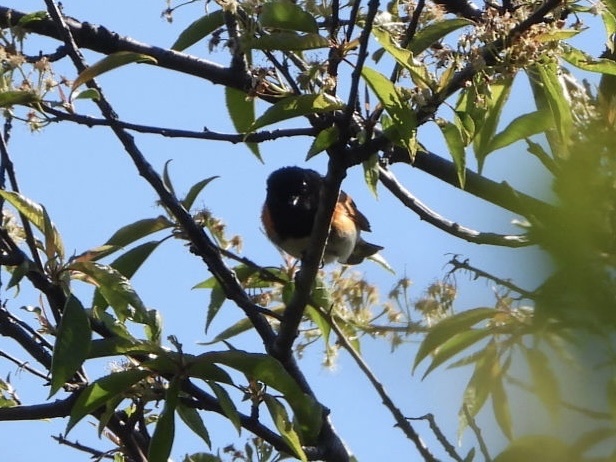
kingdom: Animalia
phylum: Chordata
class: Aves
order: Passeriformes
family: Parulidae
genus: Setophaga
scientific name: Setophaga ruticilla
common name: American redstart
